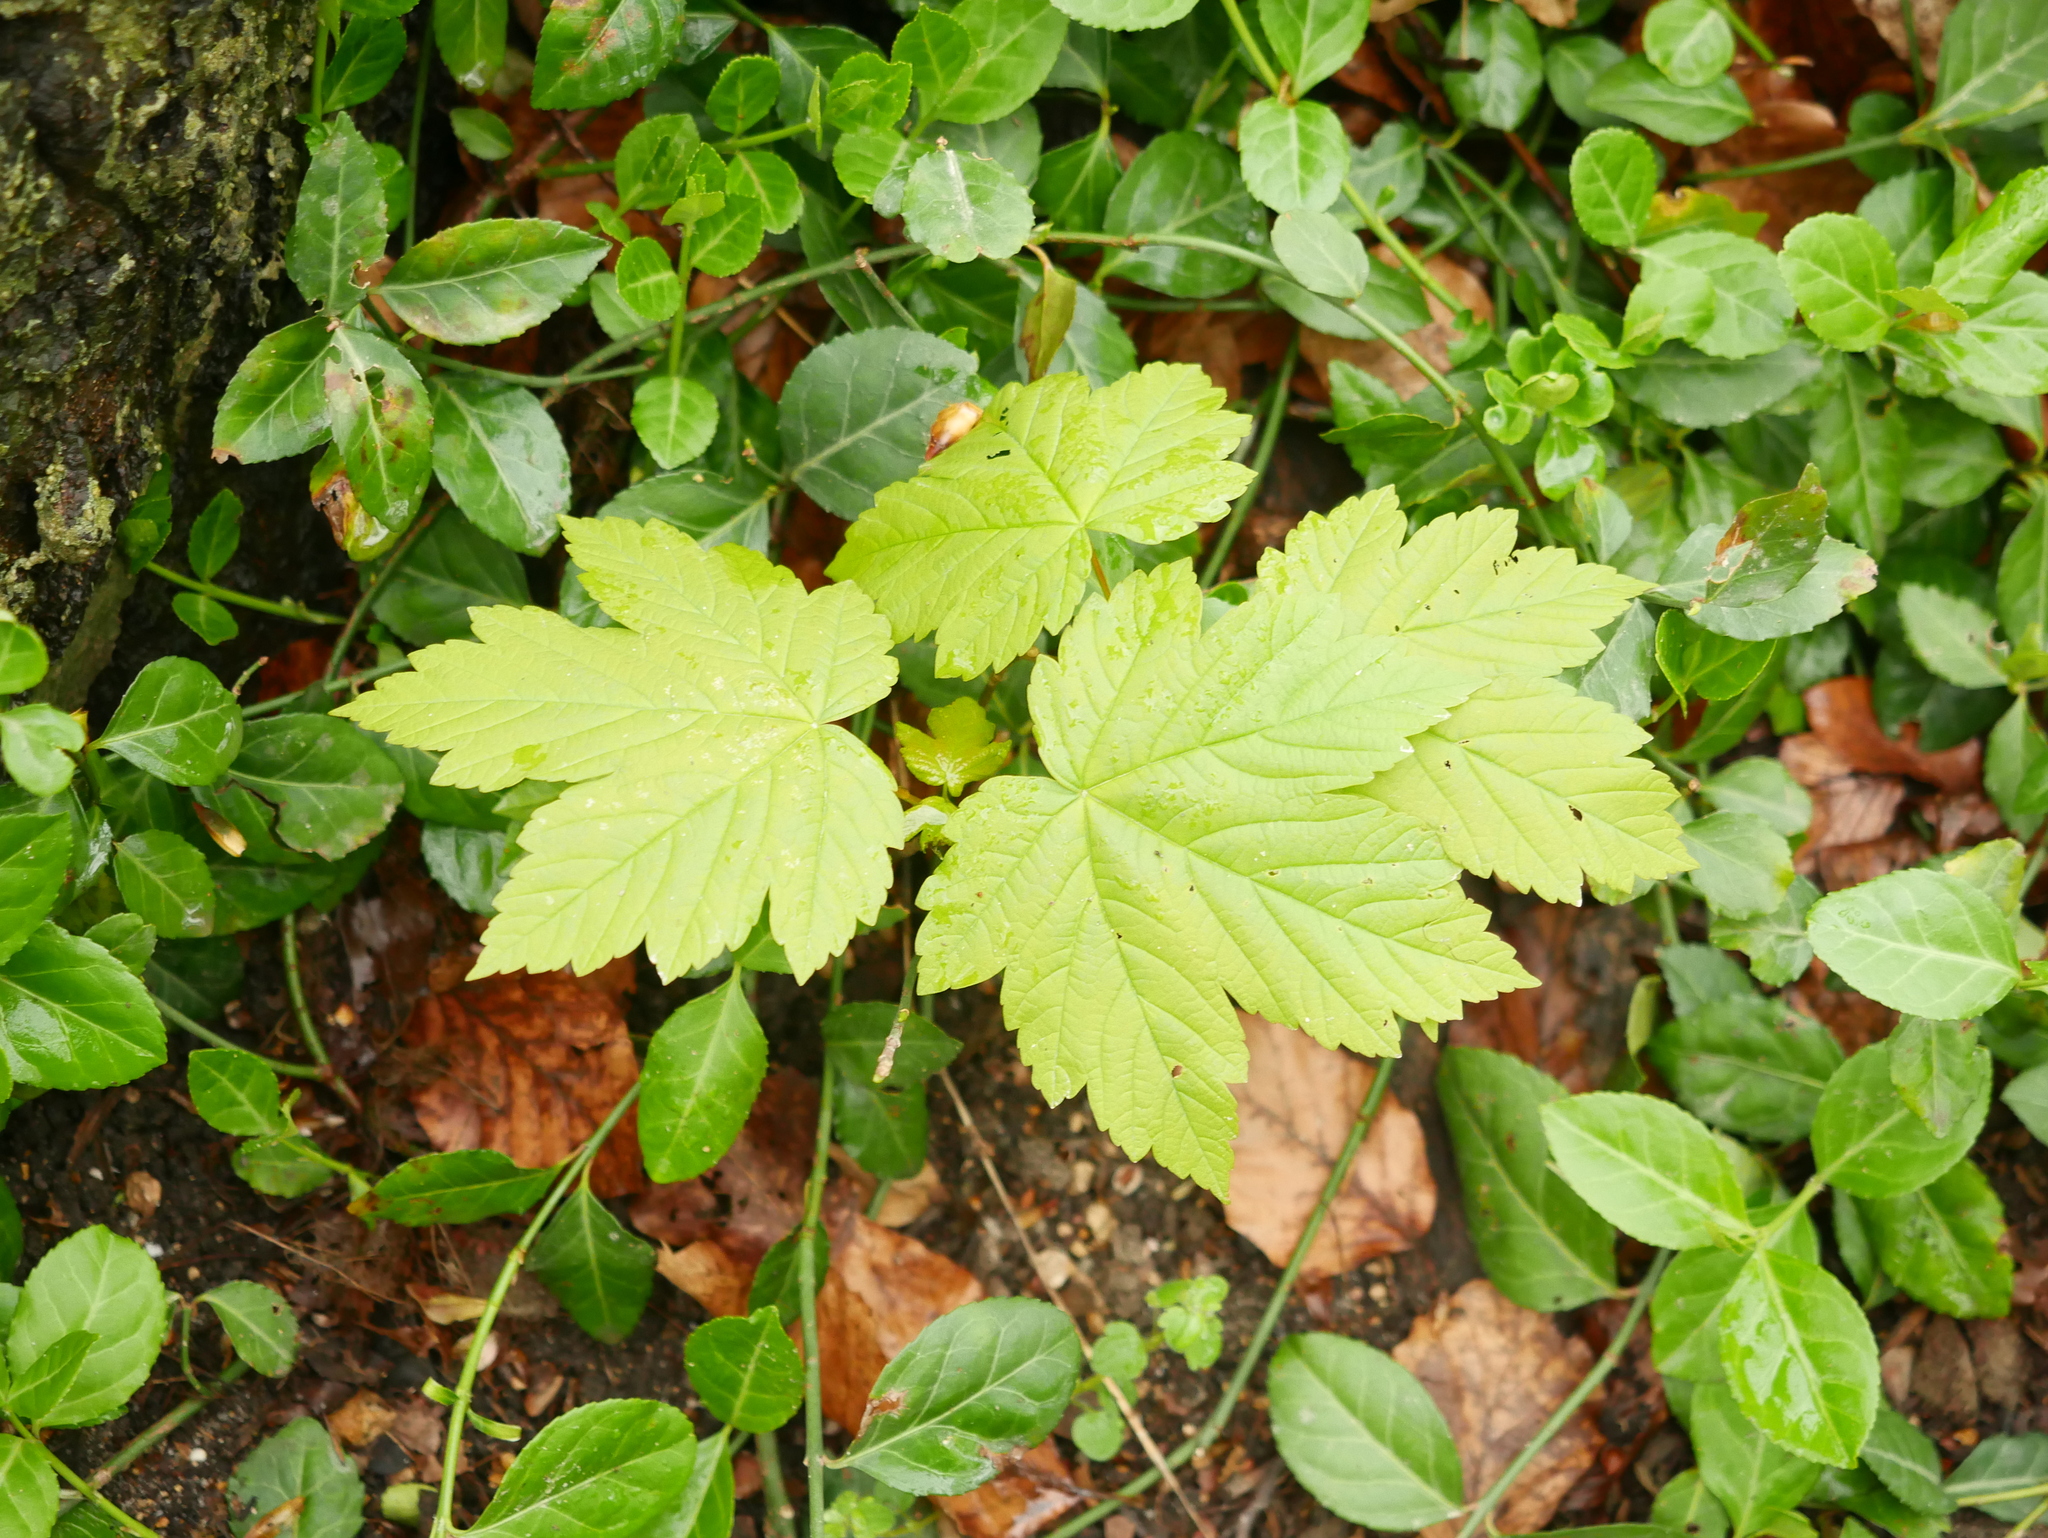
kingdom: Plantae
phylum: Tracheophyta
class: Magnoliopsida
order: Sapindales
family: Sapindaceae
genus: Acer
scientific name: Acer pseudoplatanus
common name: Sycamore
